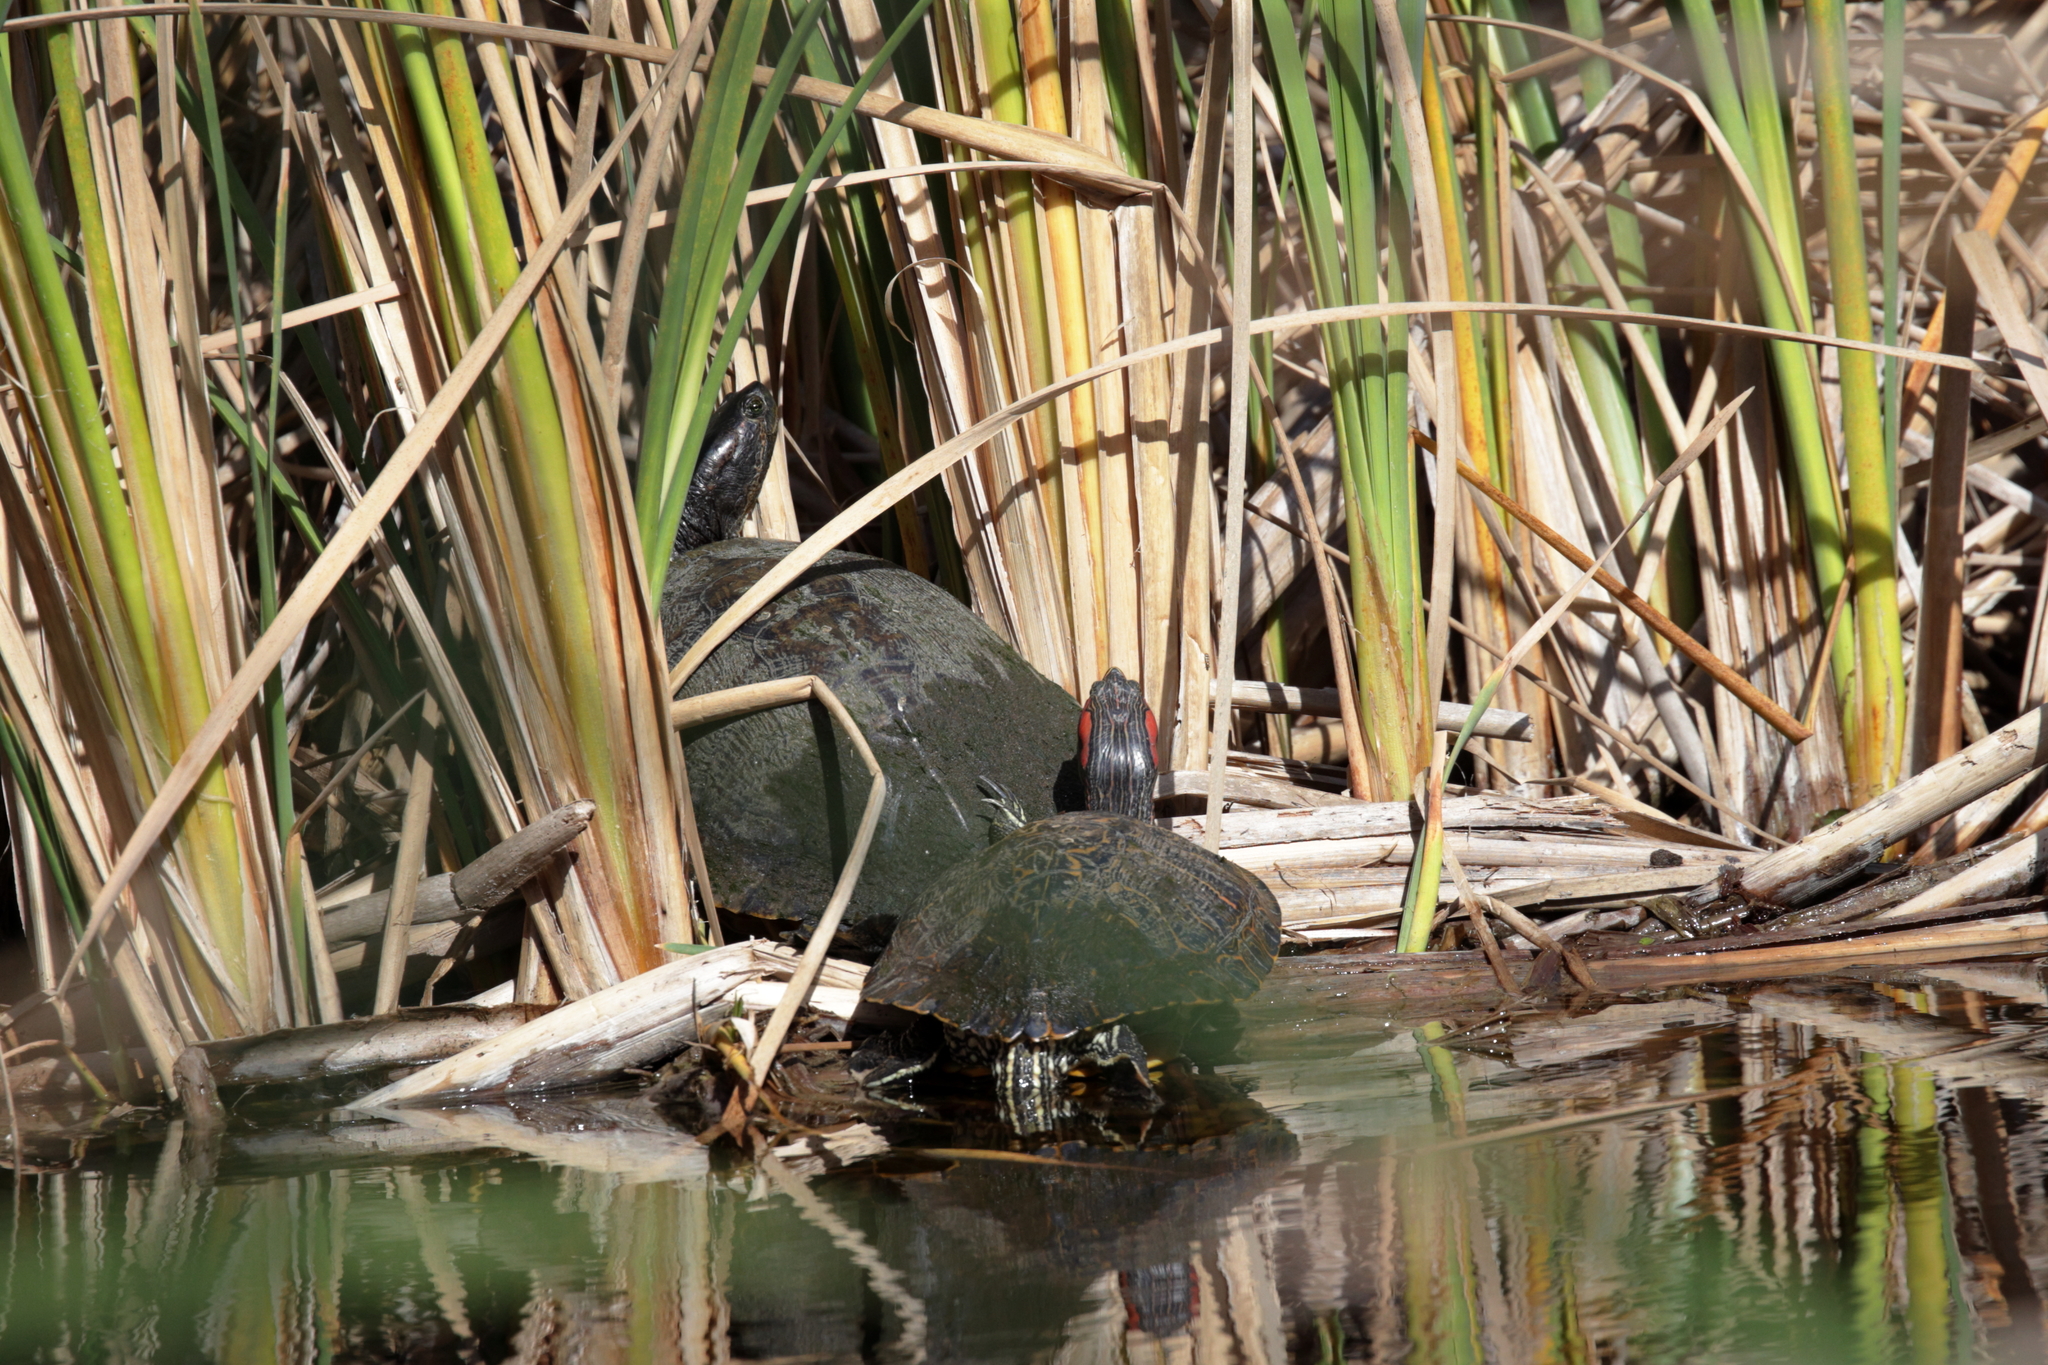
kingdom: Animalia
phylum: Chordata
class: Testudines
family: Emydidae
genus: Trachemys
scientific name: Trachemys scripta
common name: Slider
